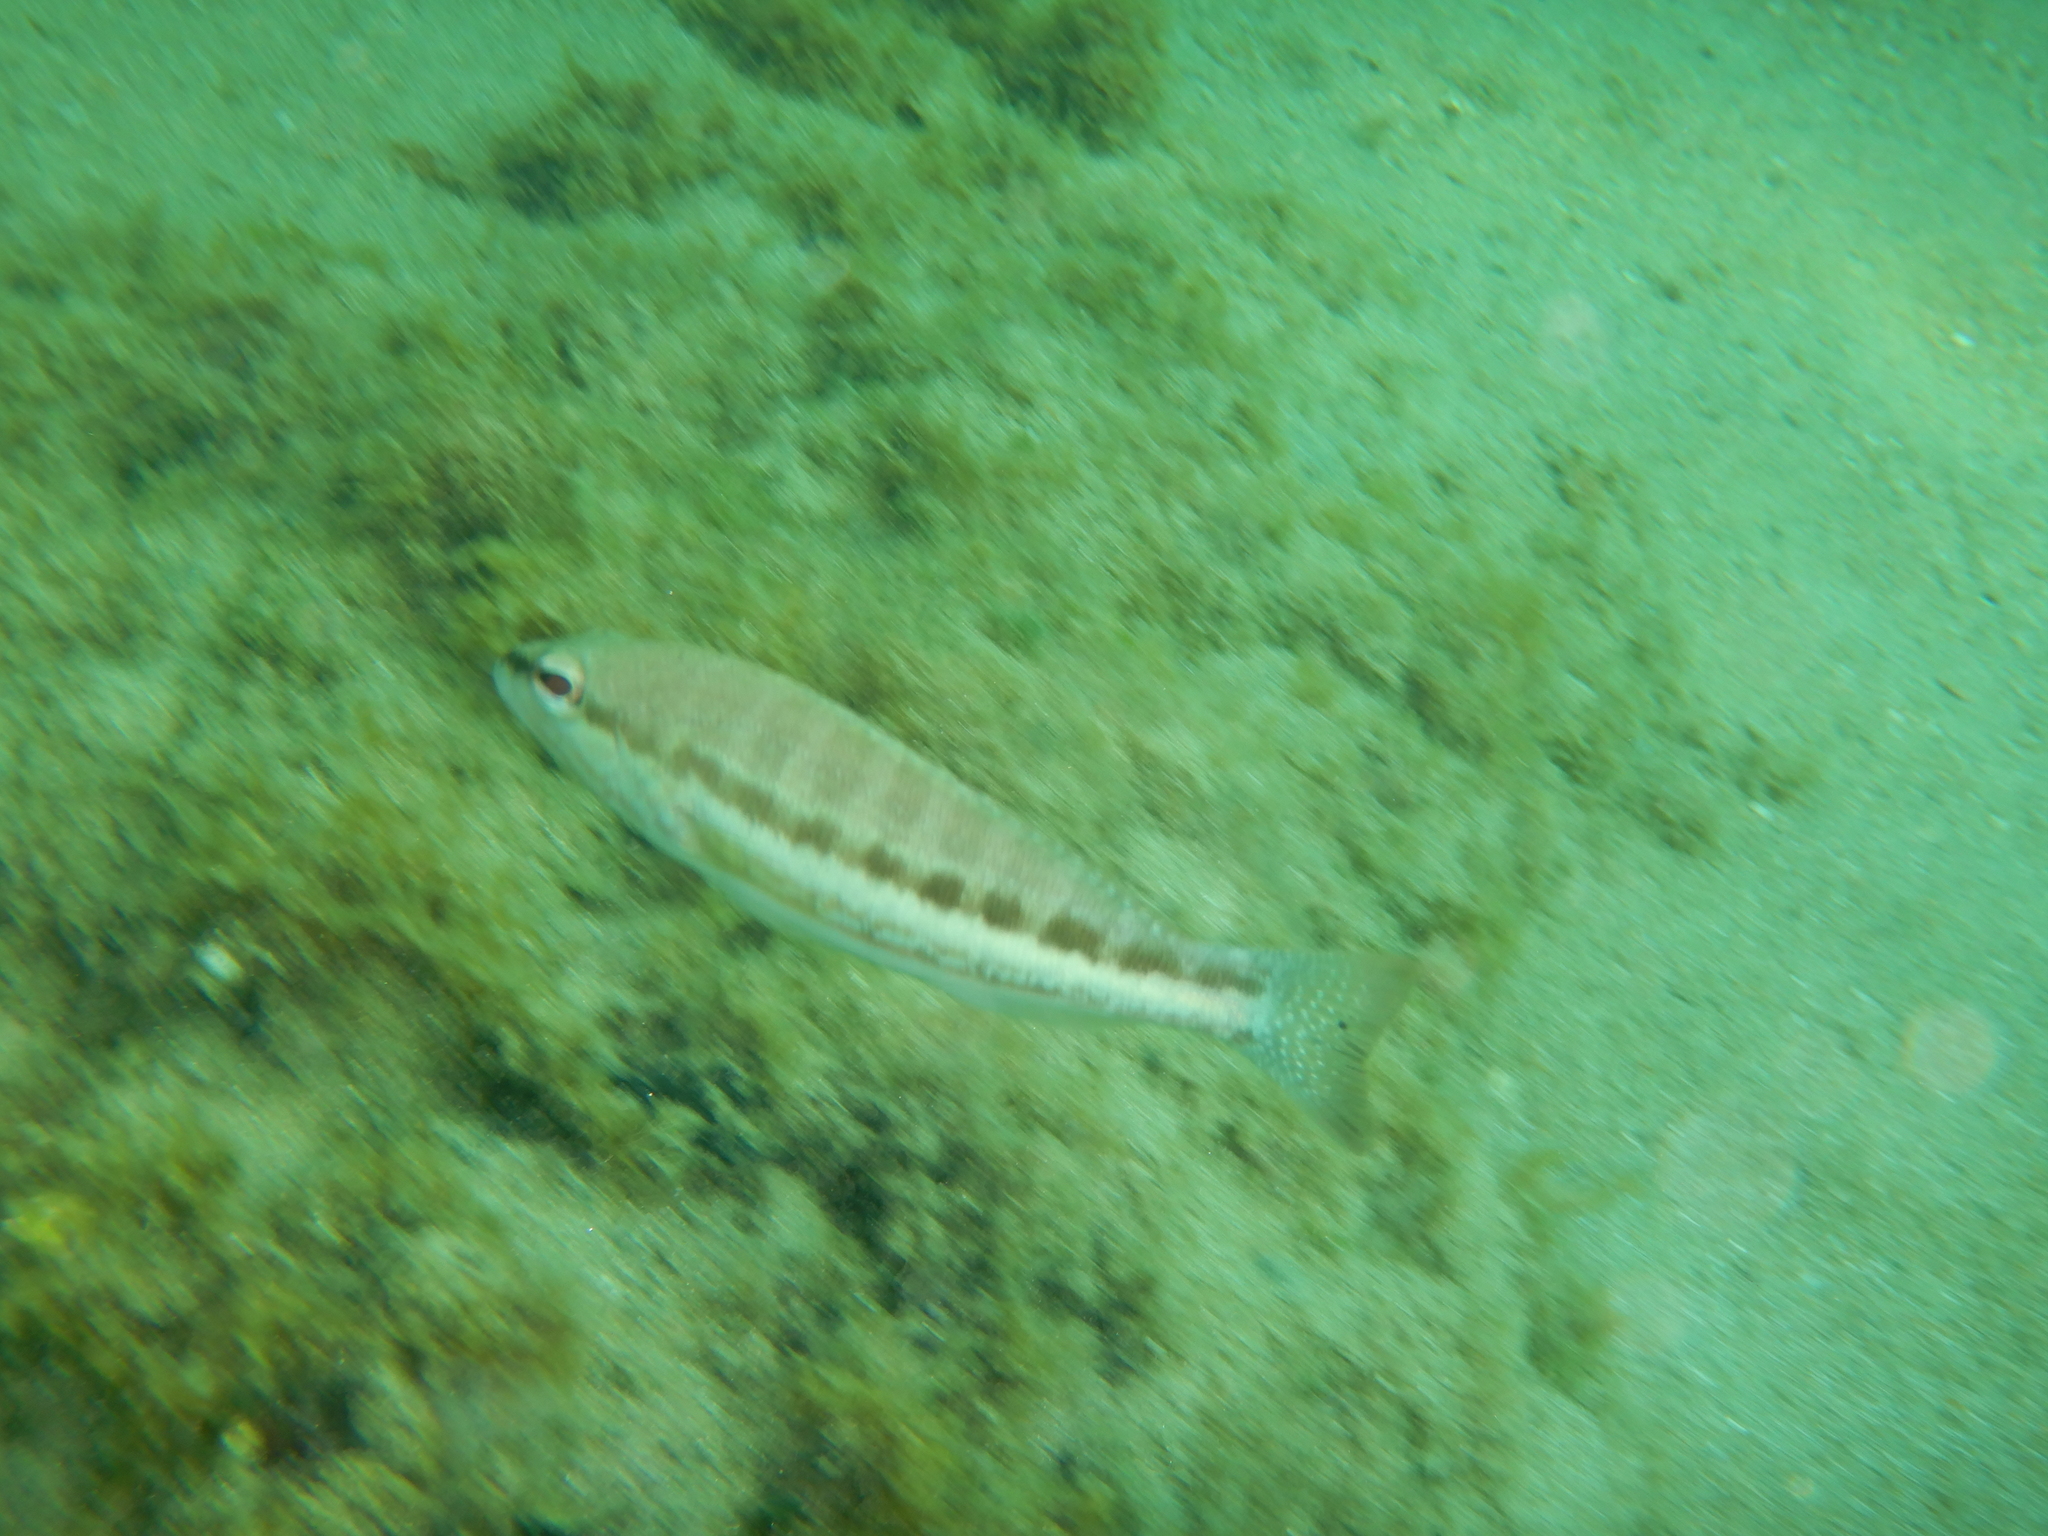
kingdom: Animalia
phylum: Chordata
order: Perciformes
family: Serranidae
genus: Serranus
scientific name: Serranus cabrilla
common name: Comber
